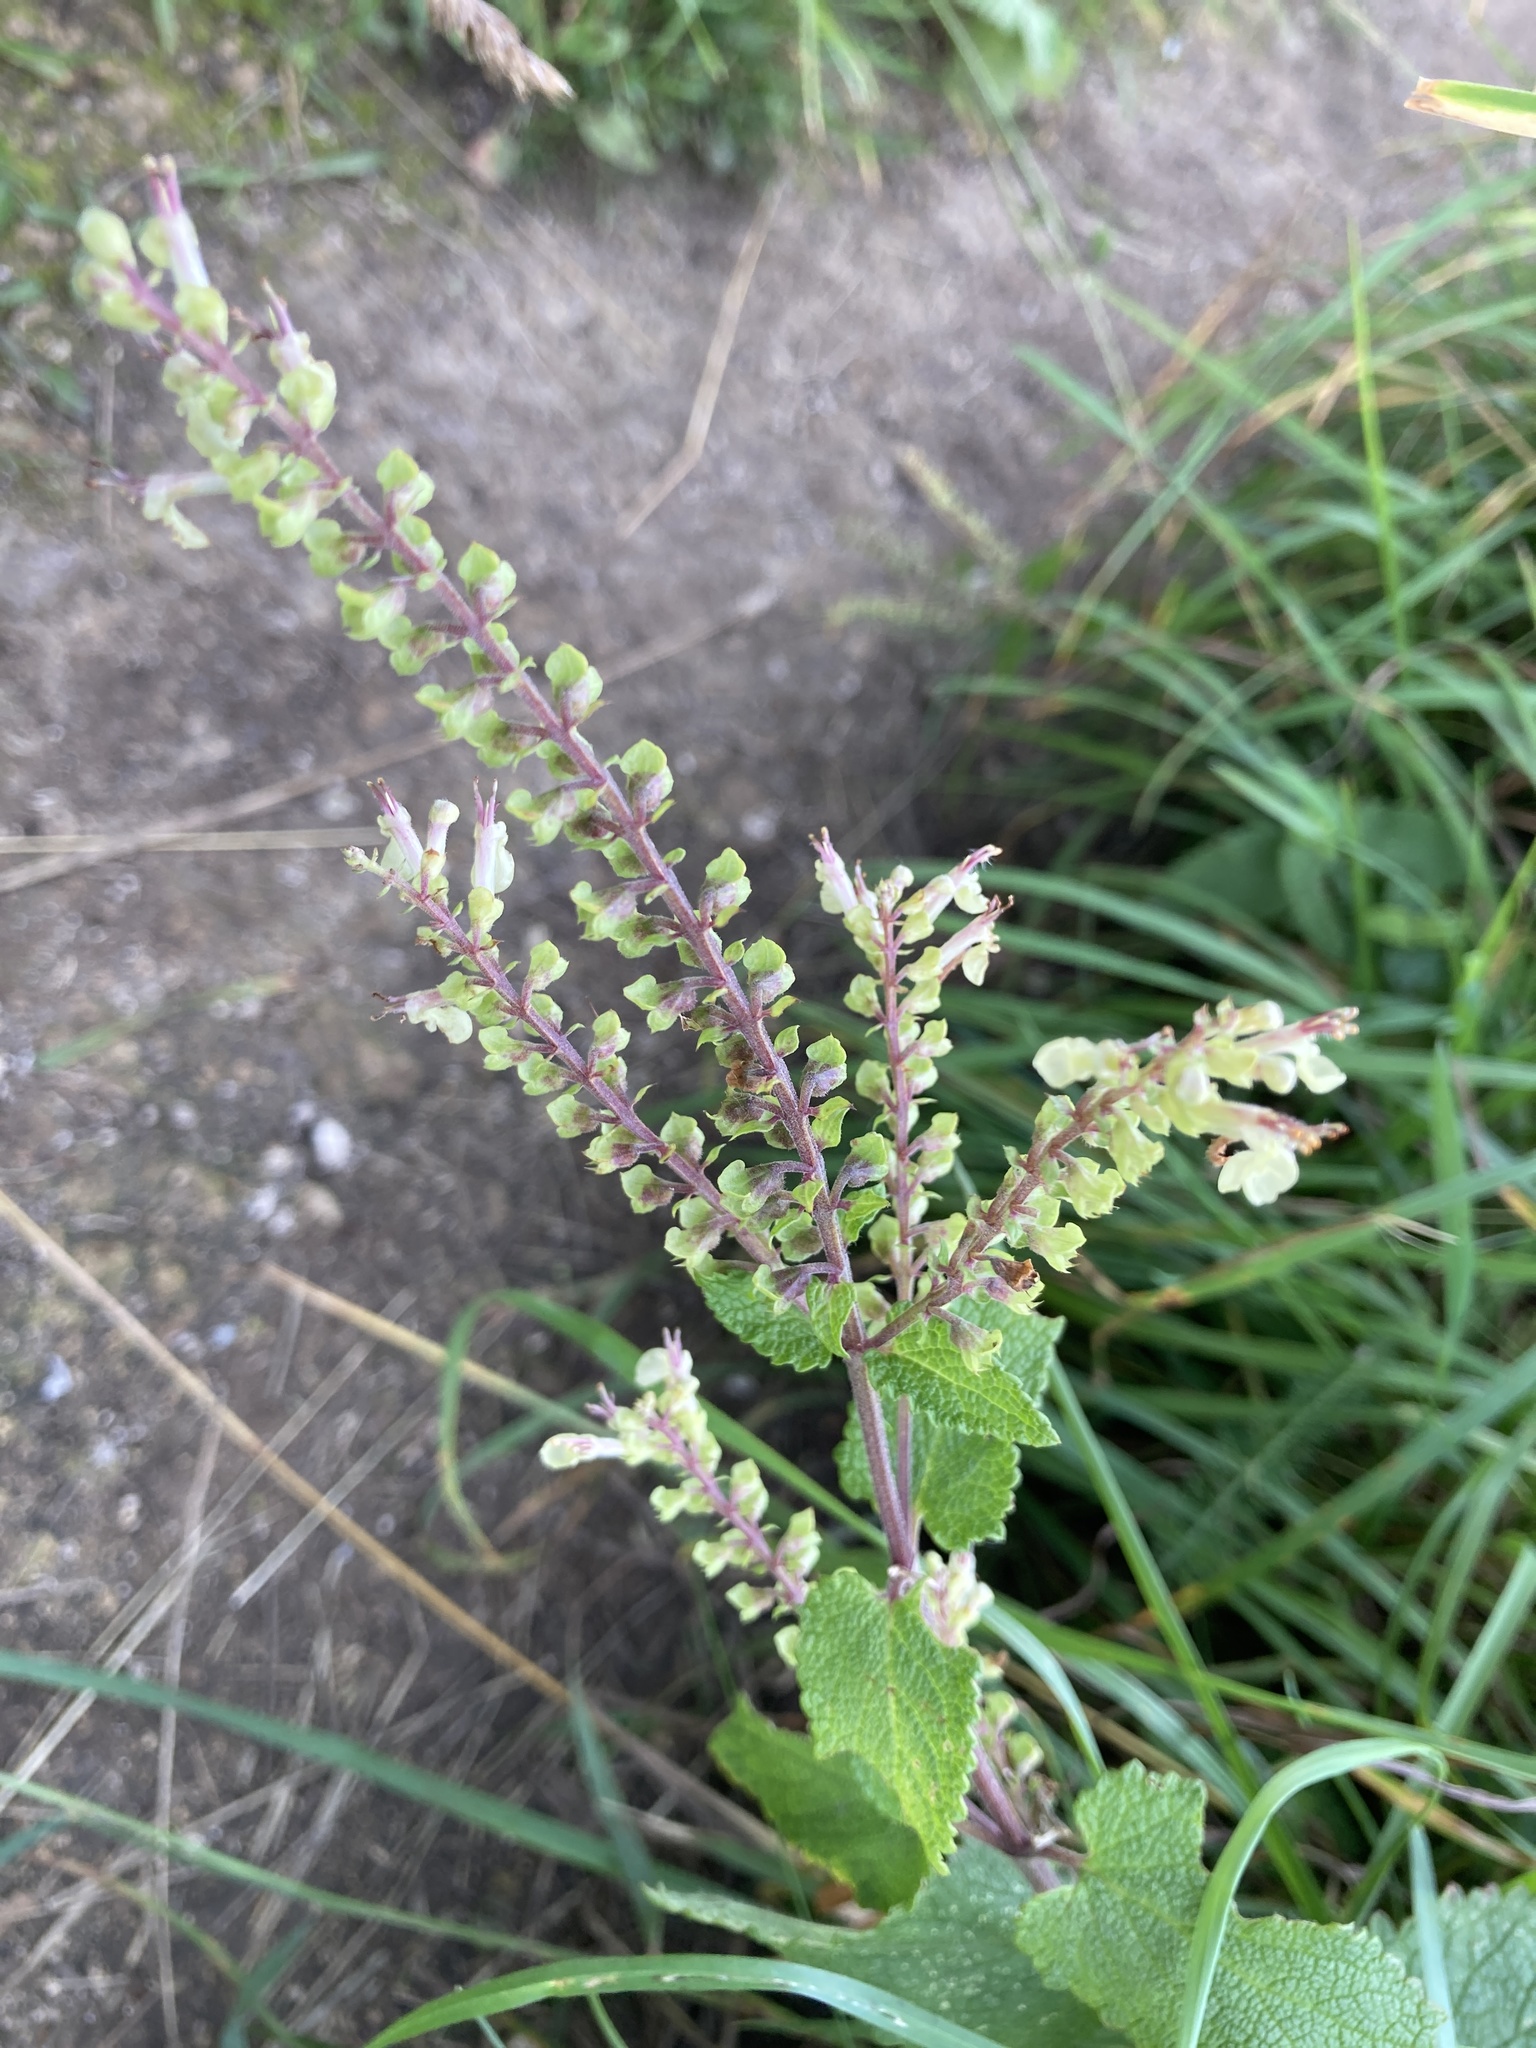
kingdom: Plantae
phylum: Tracheophyta
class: Magnoliopsida
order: Lamiales
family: Lamiaceae
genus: Teucrium
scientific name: Teucrium scorodonia
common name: Woodland germander
